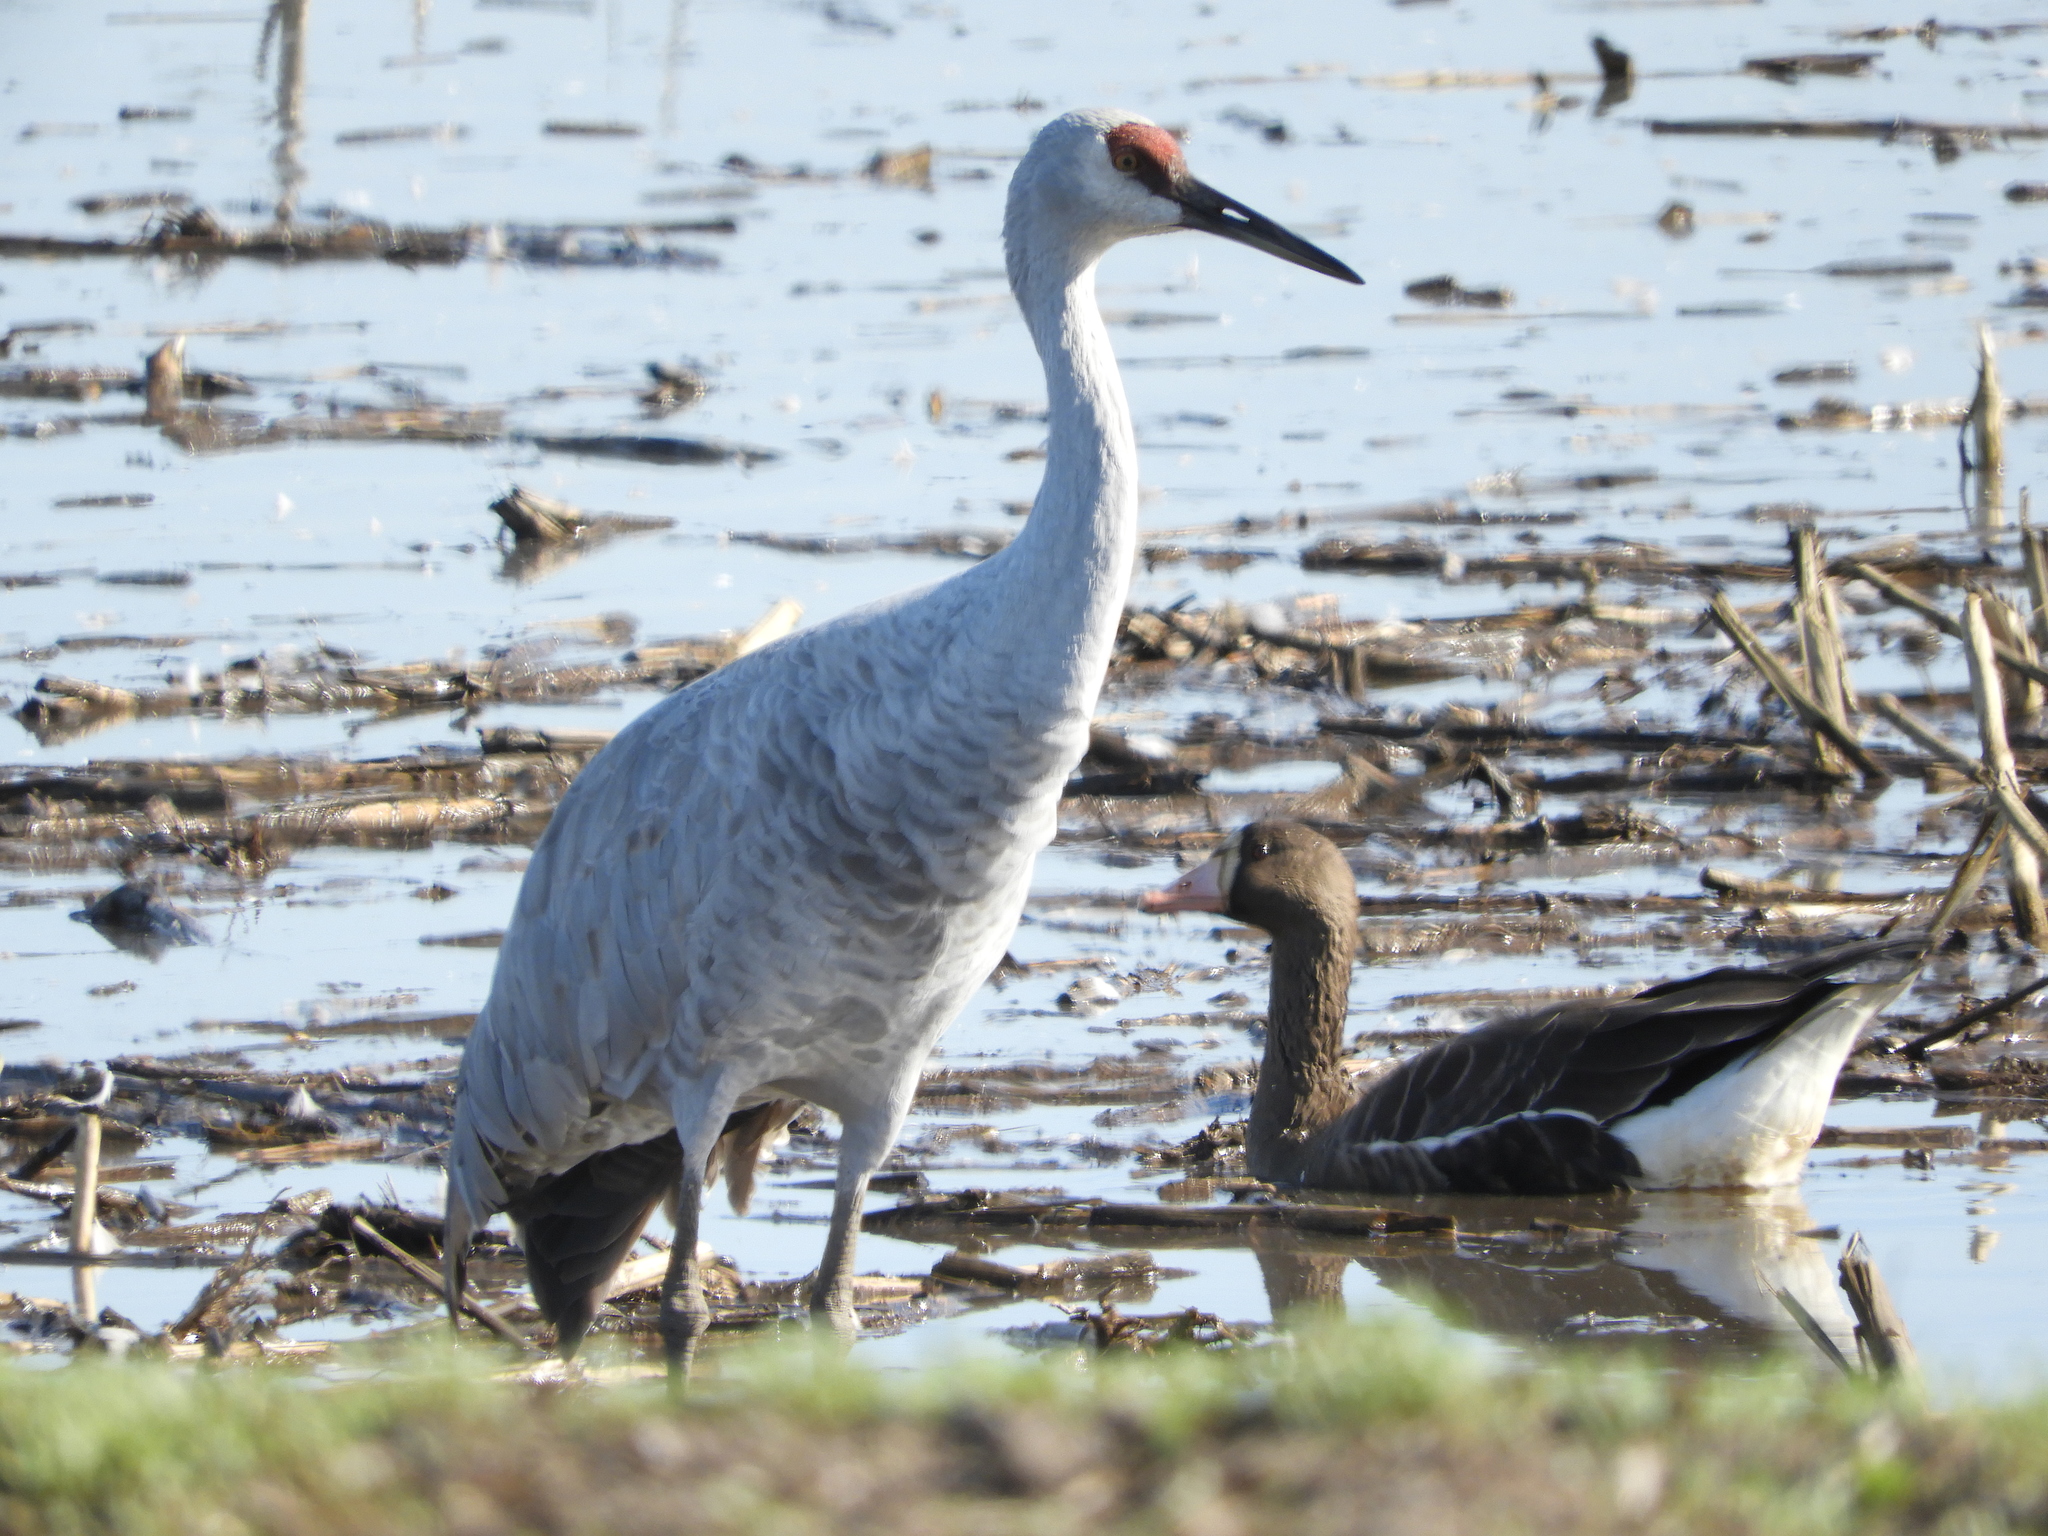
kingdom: Animalia
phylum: Chordata
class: Aves
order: Anseriformes
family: Anatidae
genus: Anser
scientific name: Anser albifrons
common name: Greater white-fronted goose
